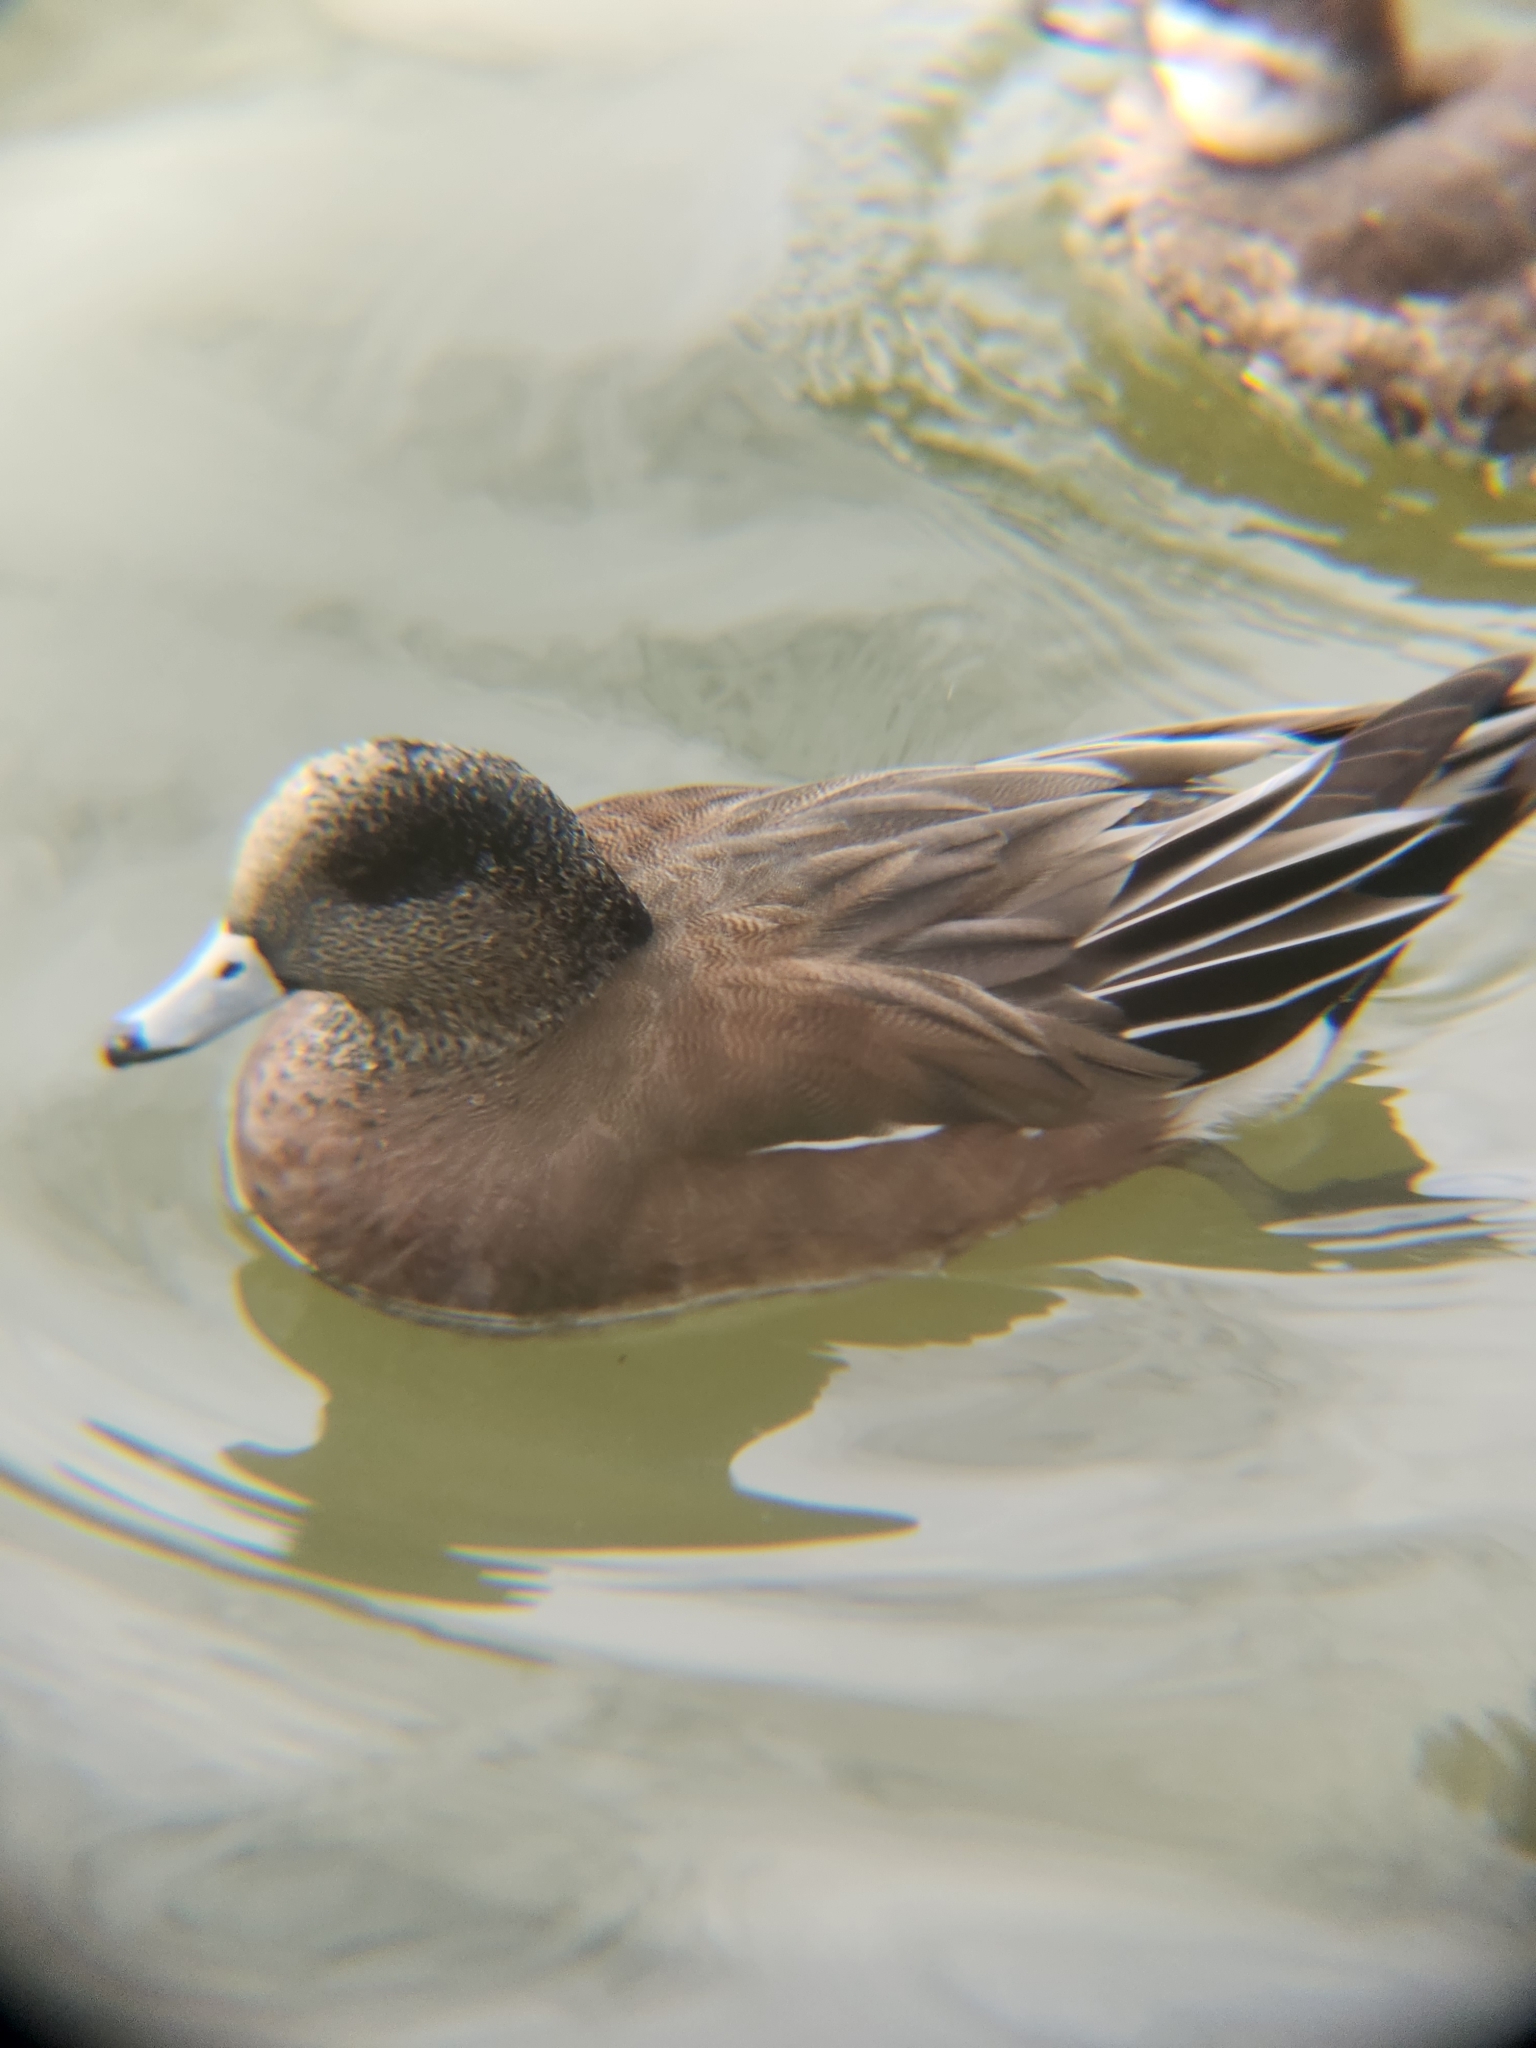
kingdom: Animalia
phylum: Chordata
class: Aves
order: Anseriformes
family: Anatidae
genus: Mareca
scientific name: Mareca americana
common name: American wigeon
